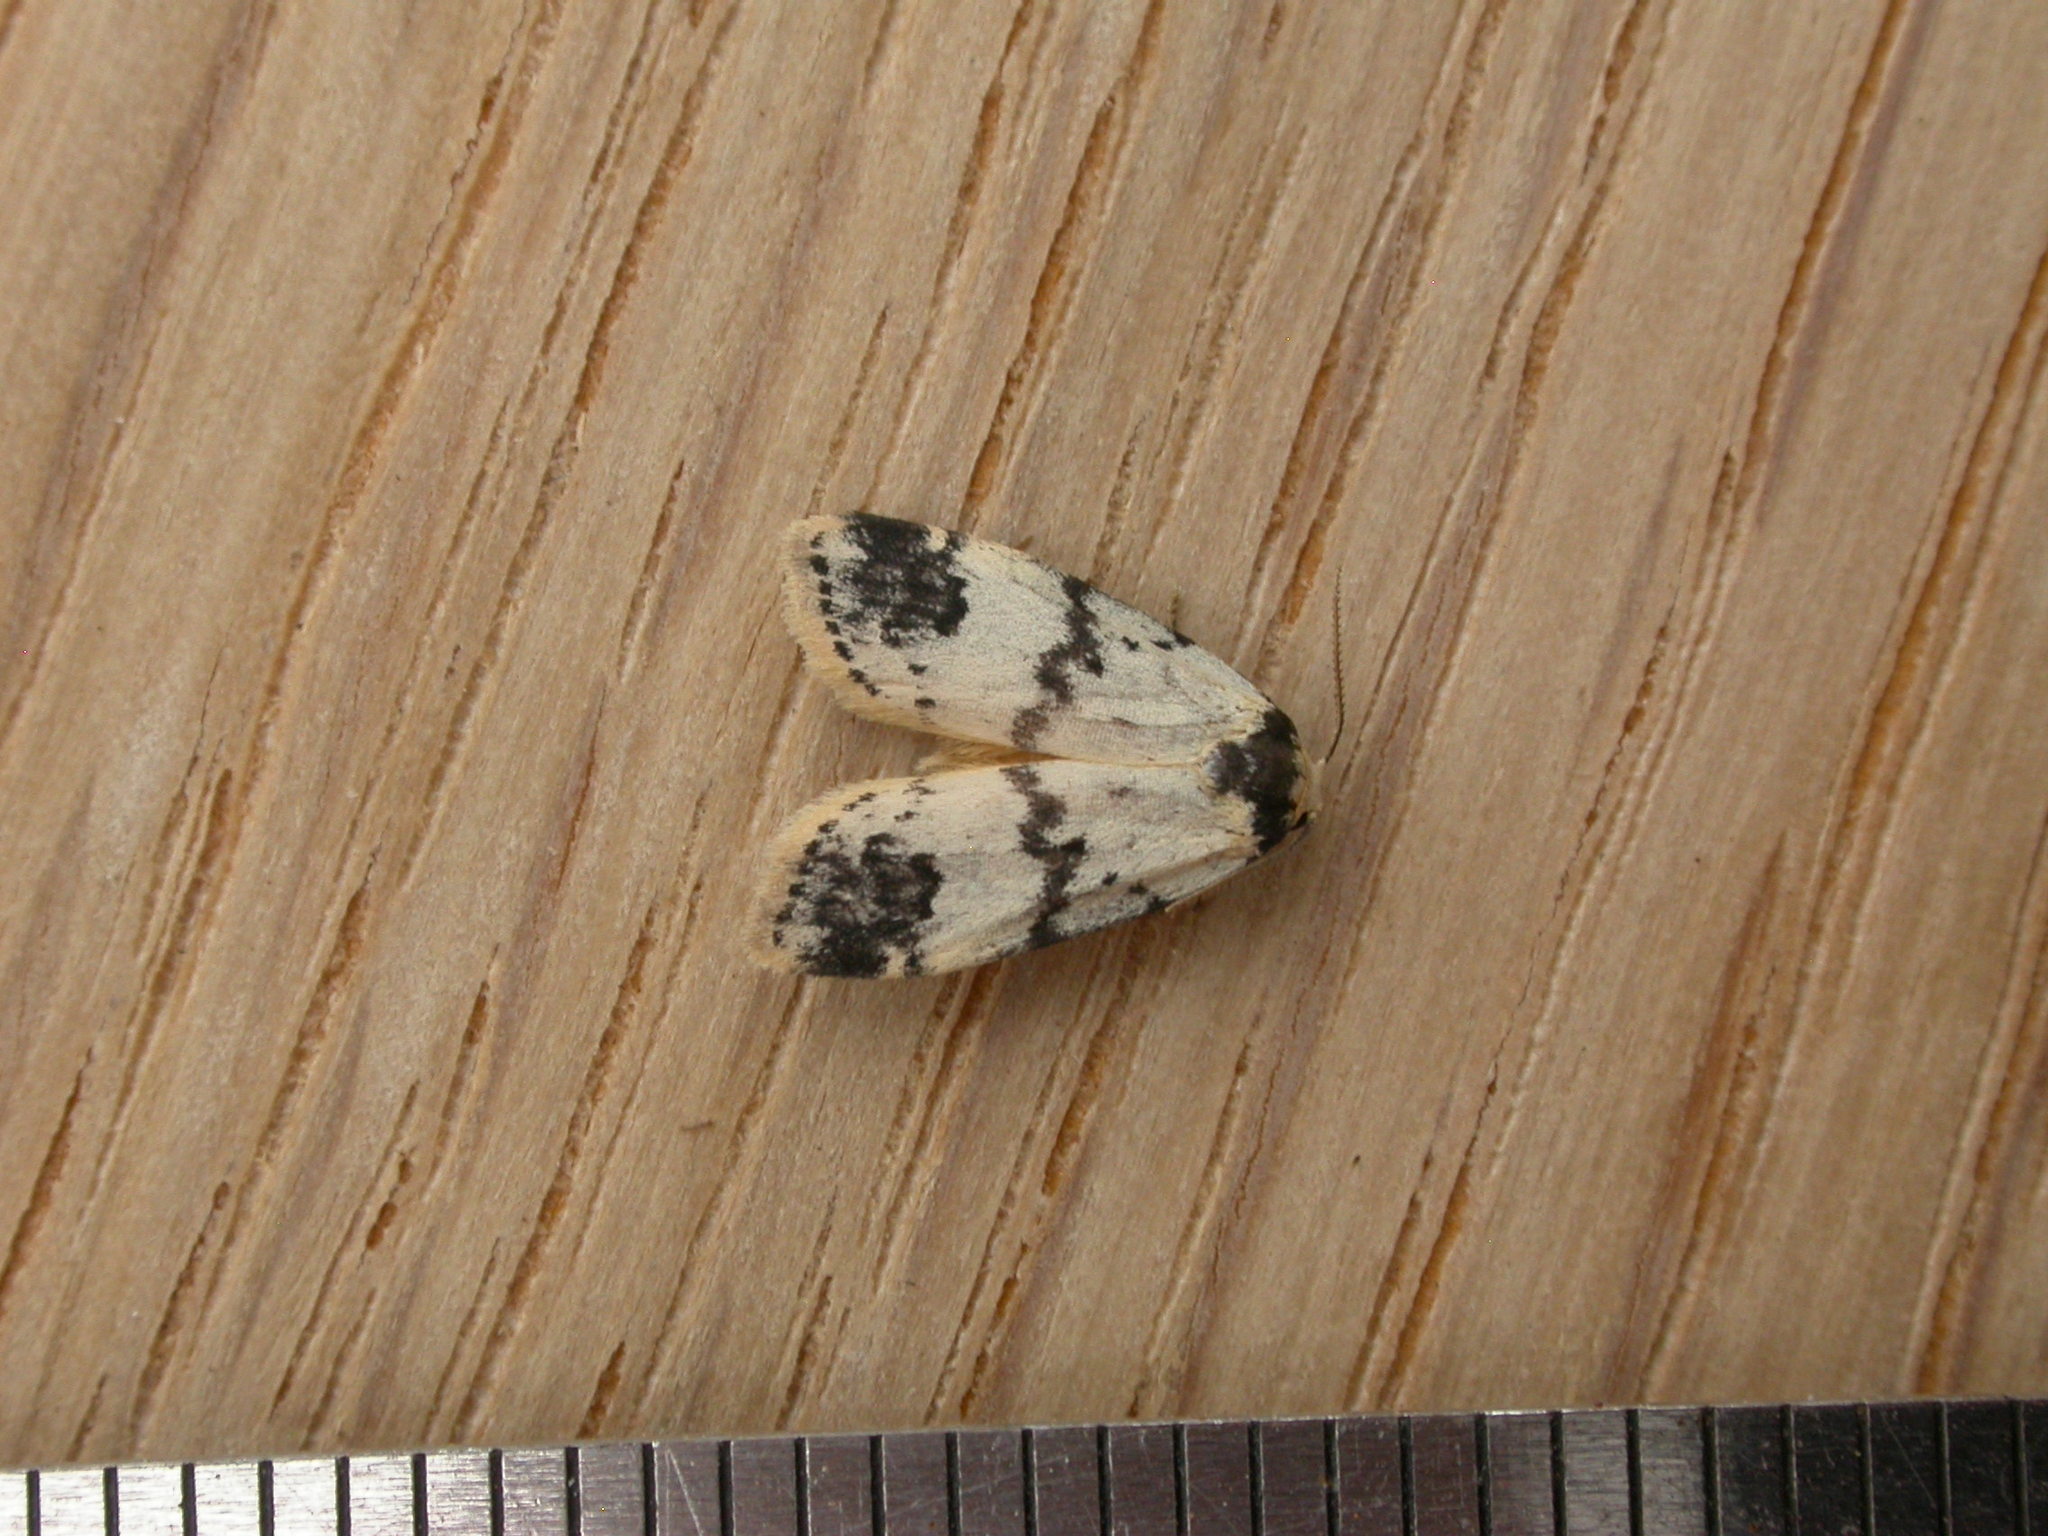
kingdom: Animalia
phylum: Arthropoda
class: Insecta
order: Lepidoptera
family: Erebidae
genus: Thallarcha
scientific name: Thallarcha sparsana
